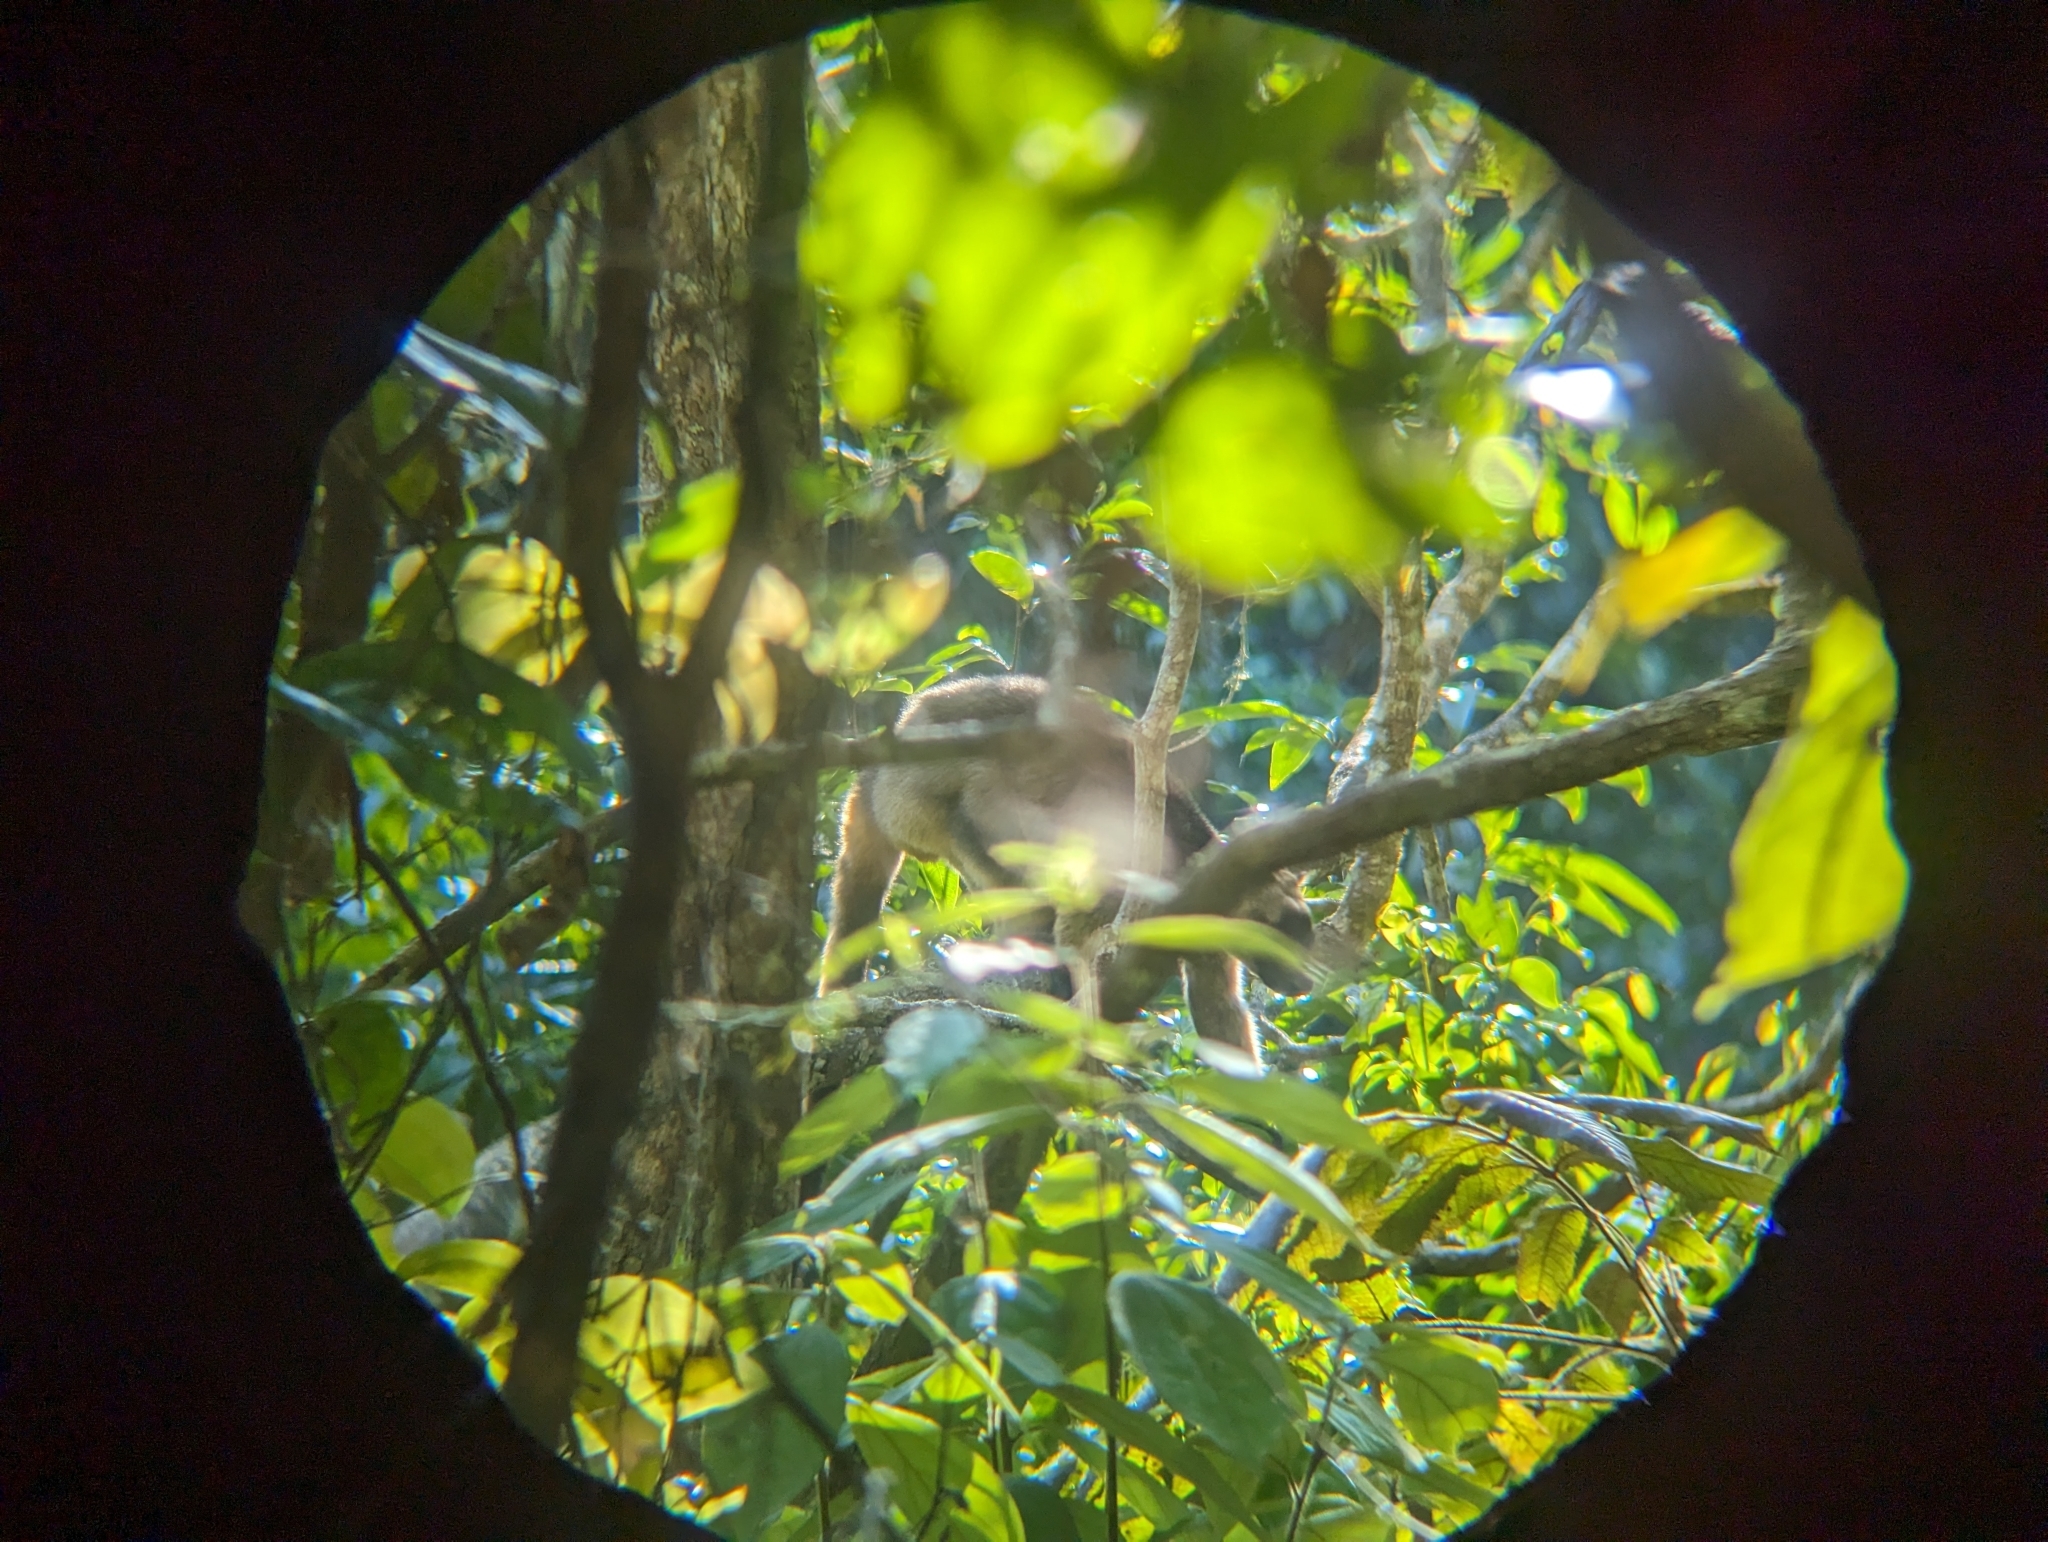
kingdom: Animalia
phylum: Chordata
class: Mammalia
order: Diprotodontia
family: Macropodidae
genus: Dendrolagus
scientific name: Dendrolagus lumholtzi
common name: Lumholtz's tree kangaroo
